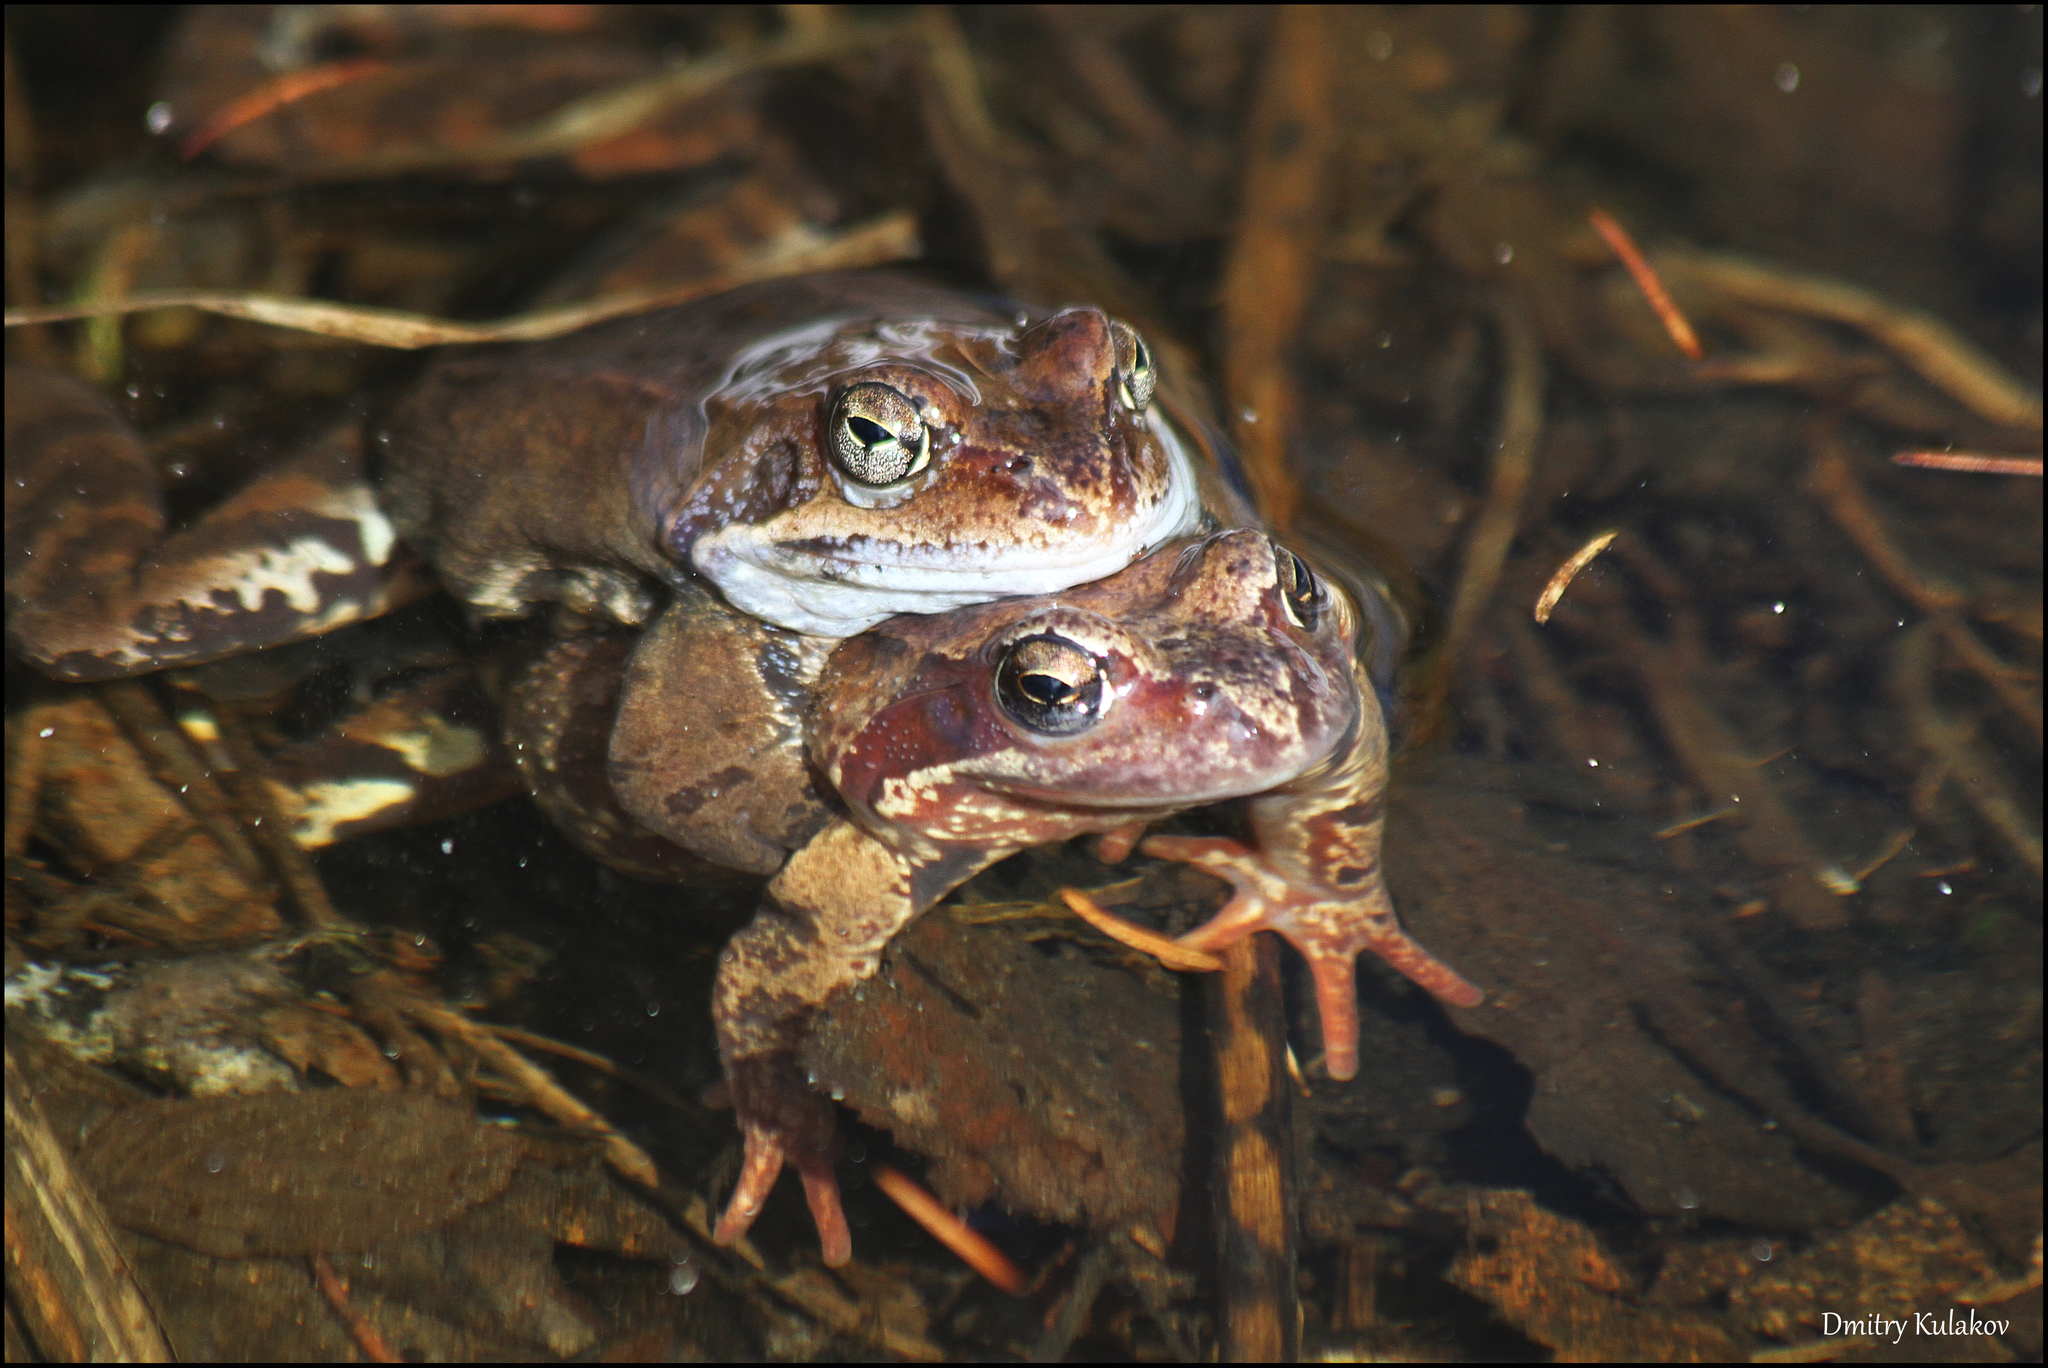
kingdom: Animalia
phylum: Chordata
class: Amphibia
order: Anura
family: Ranidae
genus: Rana
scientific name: Rana temporaria
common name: Common frog
